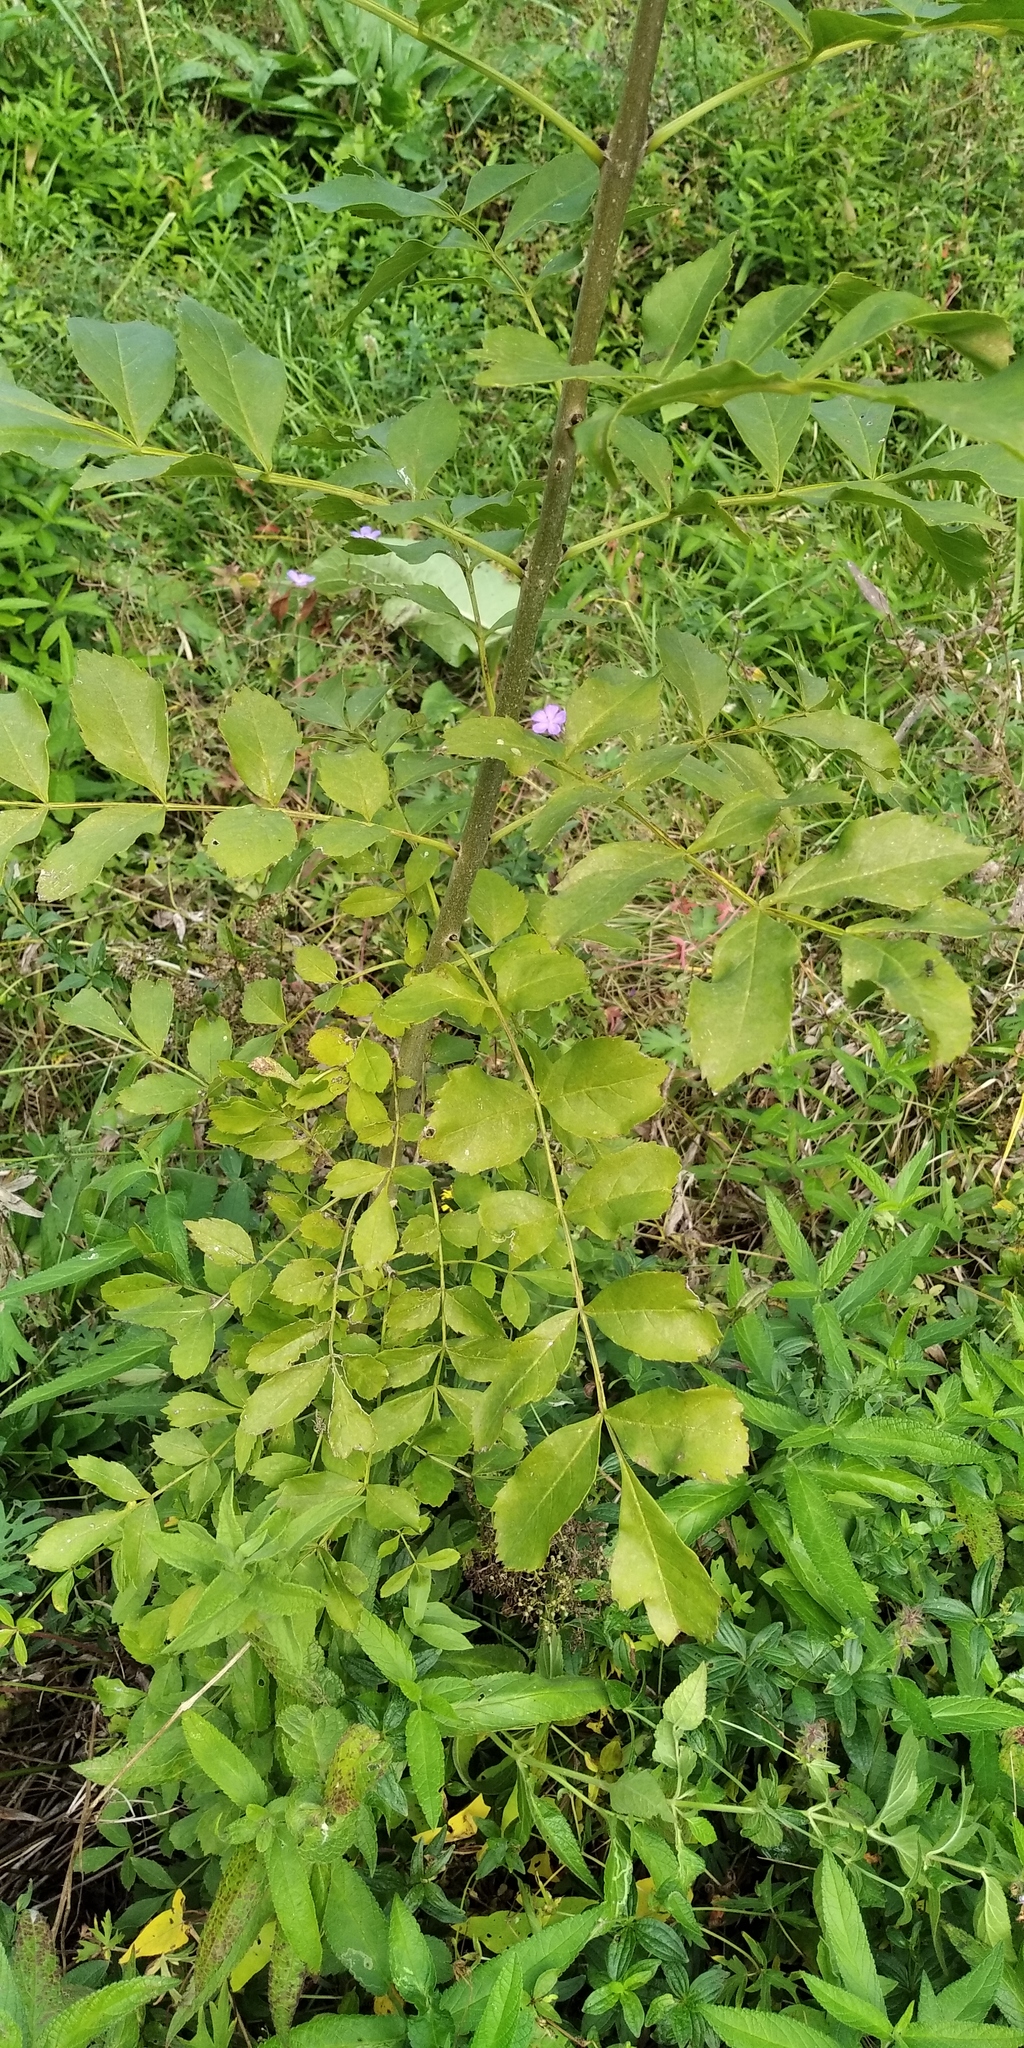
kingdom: Plantae
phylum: Tracheophyta
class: Magnoliopsida
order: Lamiales
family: Oleaceae
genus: Fraxinus
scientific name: Fraxinus excelsior
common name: European ash
